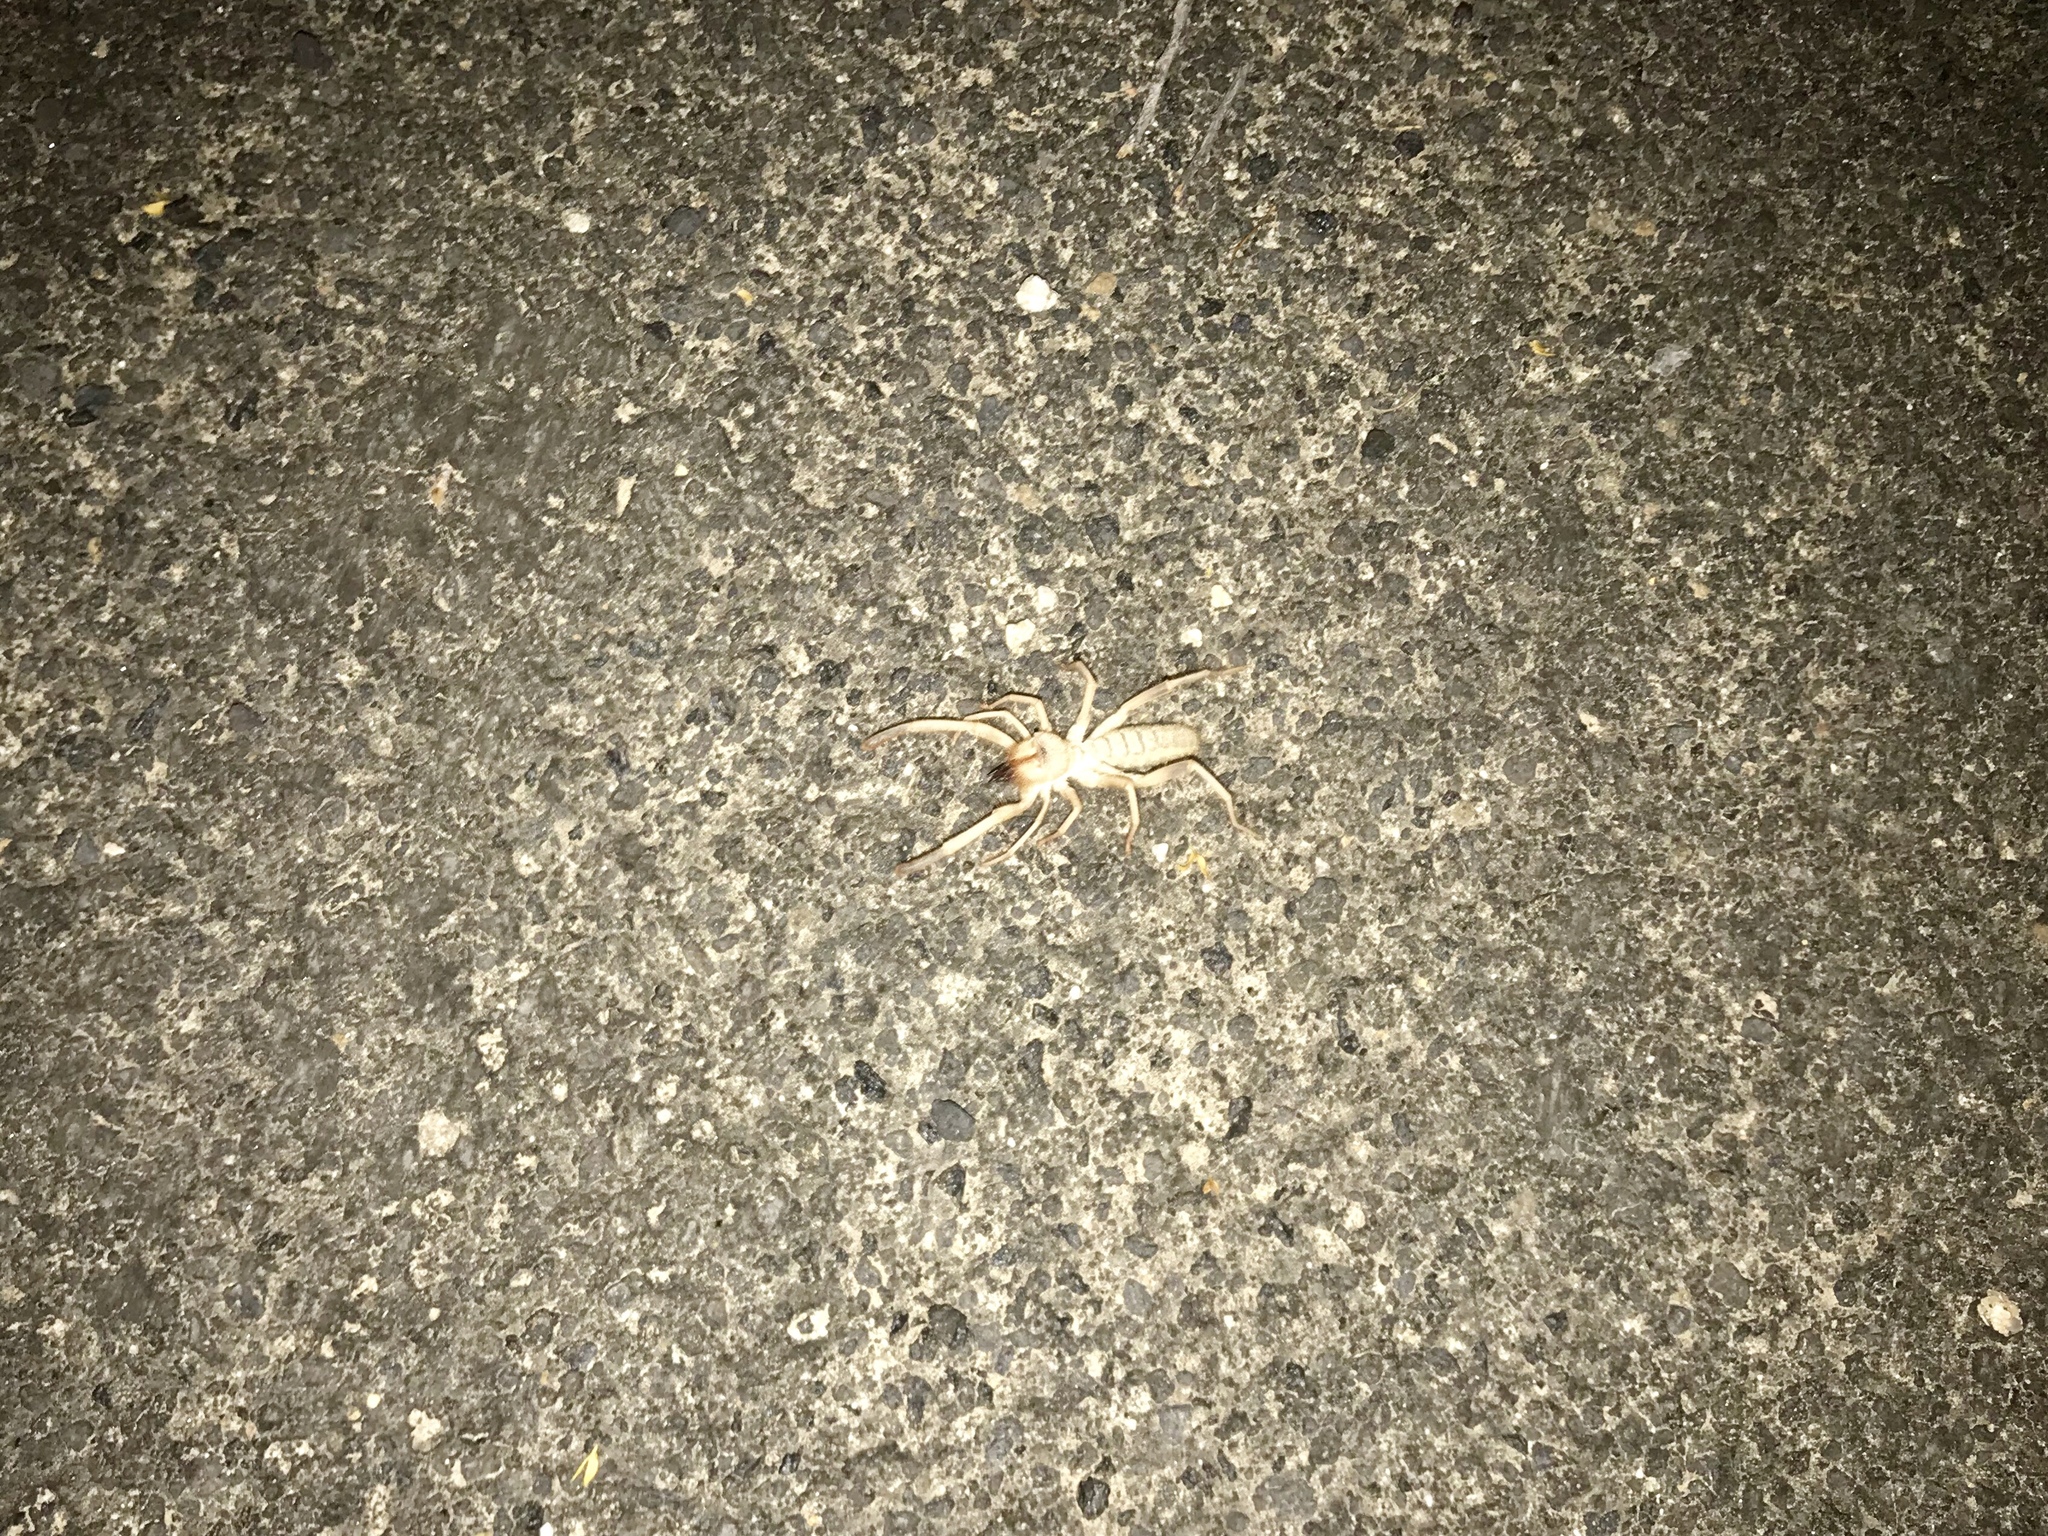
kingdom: Animalia
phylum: Arthropoda
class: Arachnida
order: Solifugae
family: Eremobatidae
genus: Eremorhax
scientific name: Eremorhax joshui
